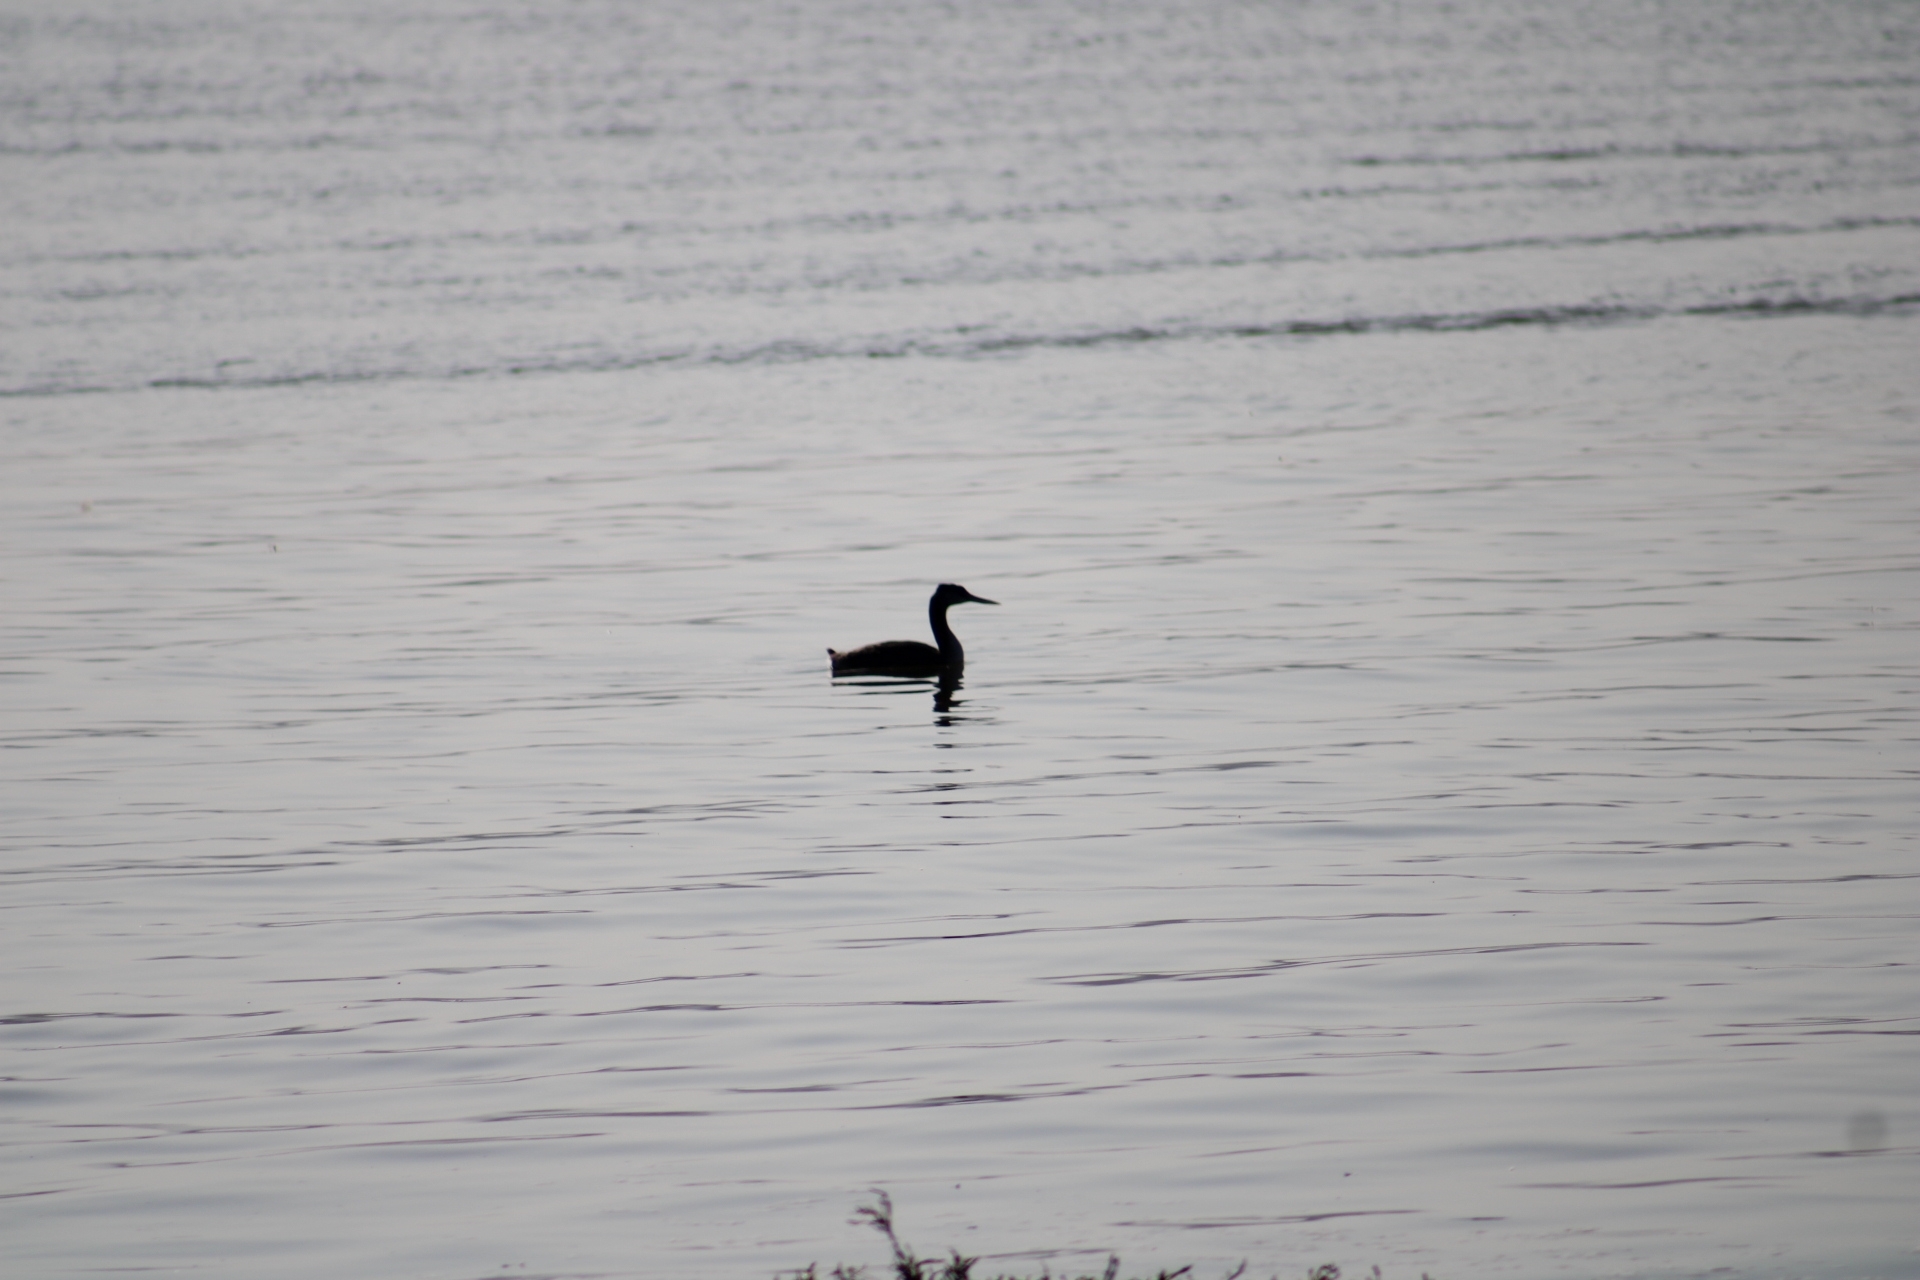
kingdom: Animalia
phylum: Chordata
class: Aves
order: Podicipediformes
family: Podicipedidae
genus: Podiceps
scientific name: Podiceps major
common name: Great grebe
